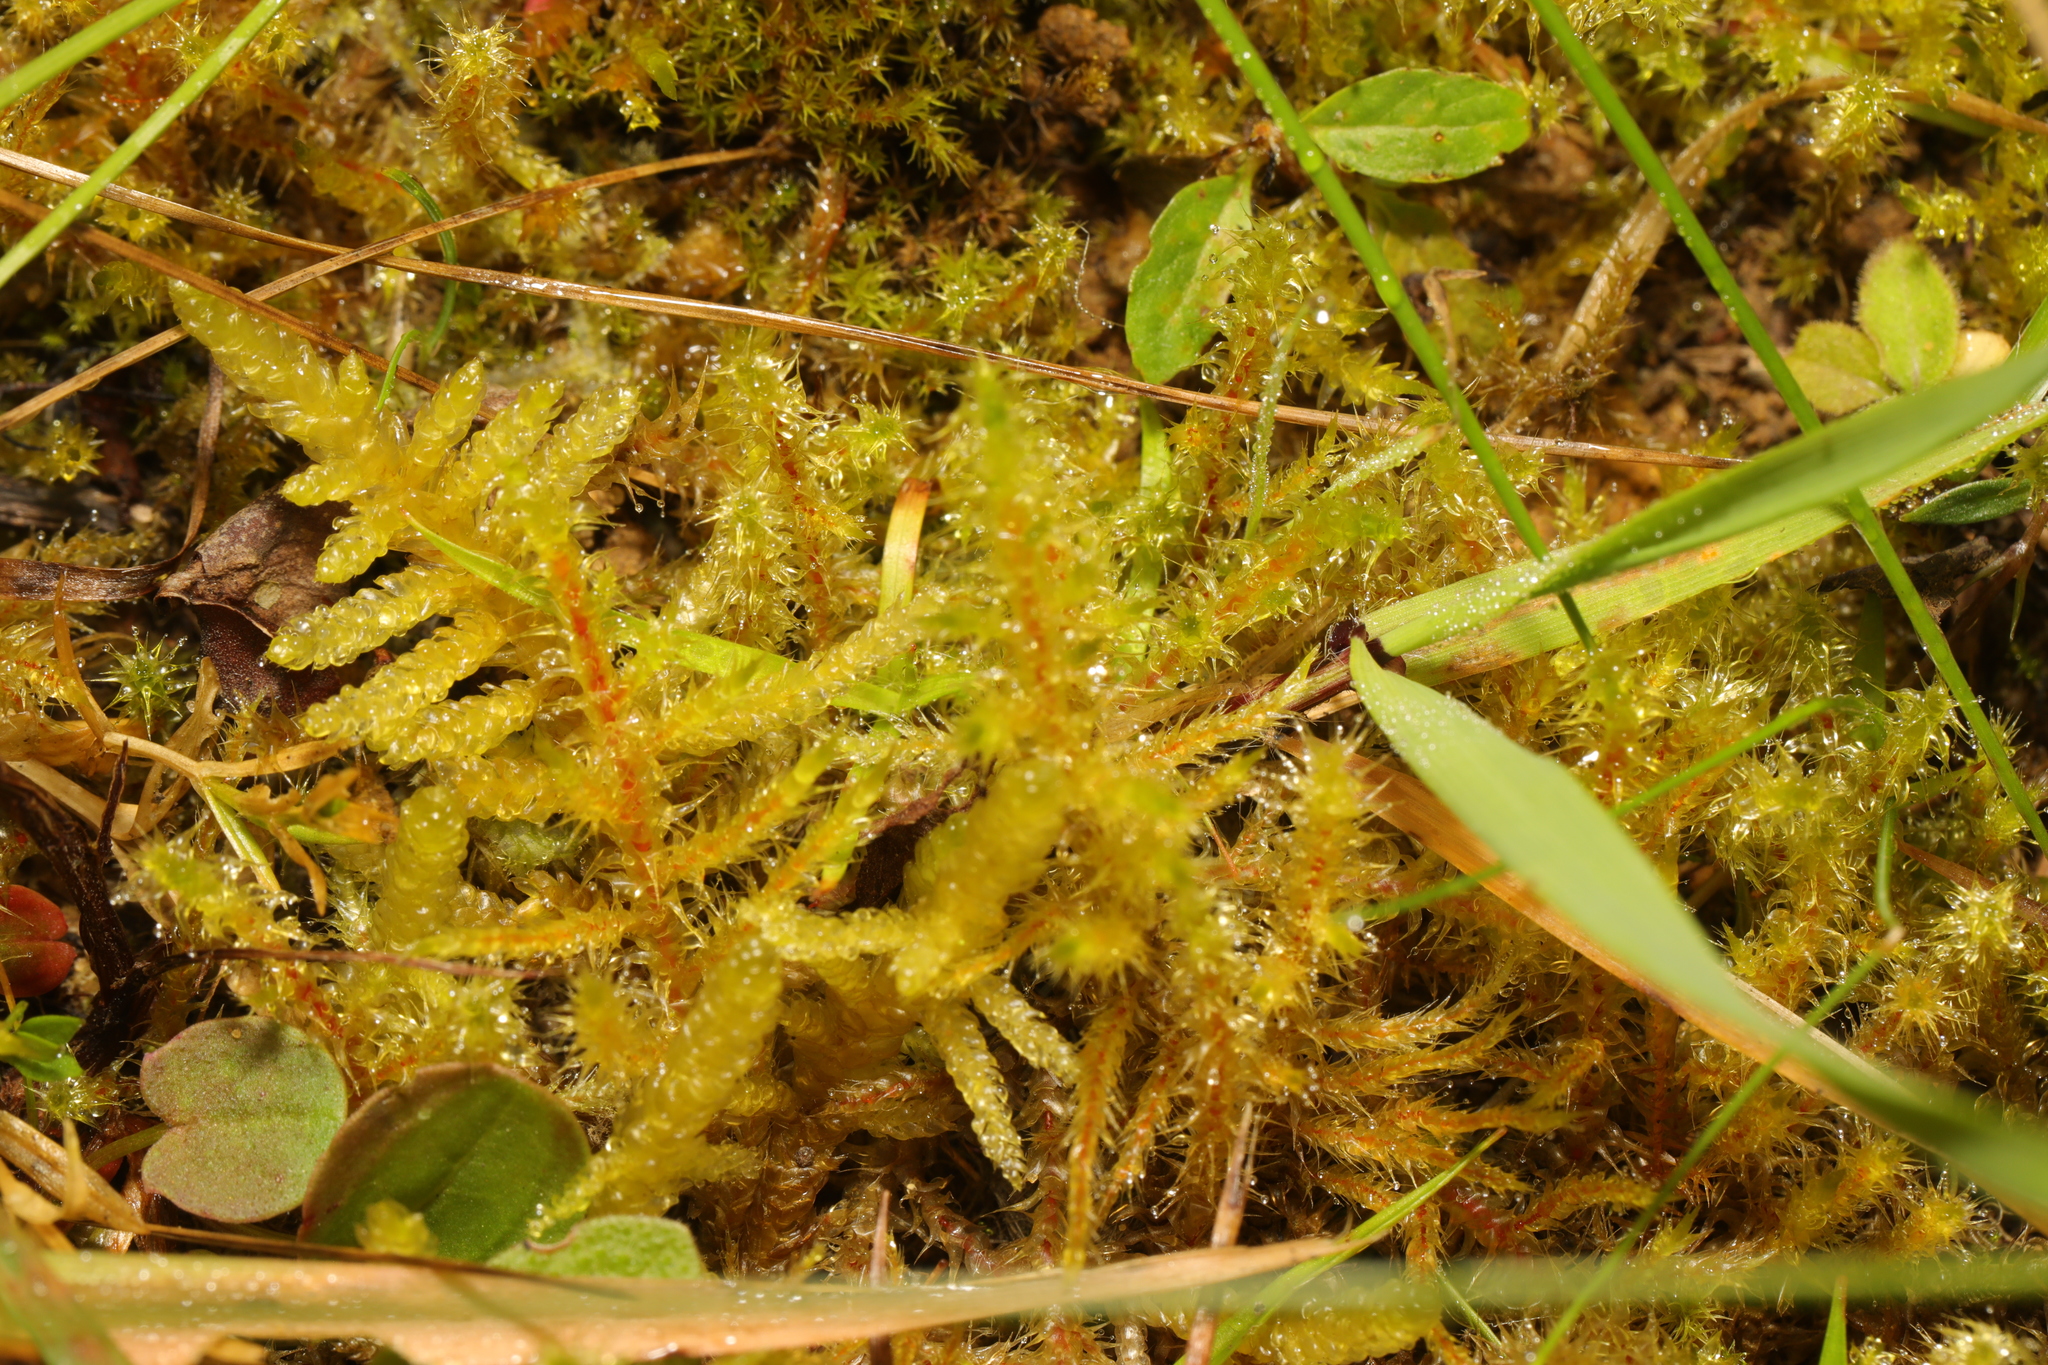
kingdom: Plantae
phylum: Bryophyta
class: Bryopsida
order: Hypnales
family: Hylocomiaceae
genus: Rhytidiadelphus
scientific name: Rhytidiadelphus squarrosus
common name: Springy turf-moss
